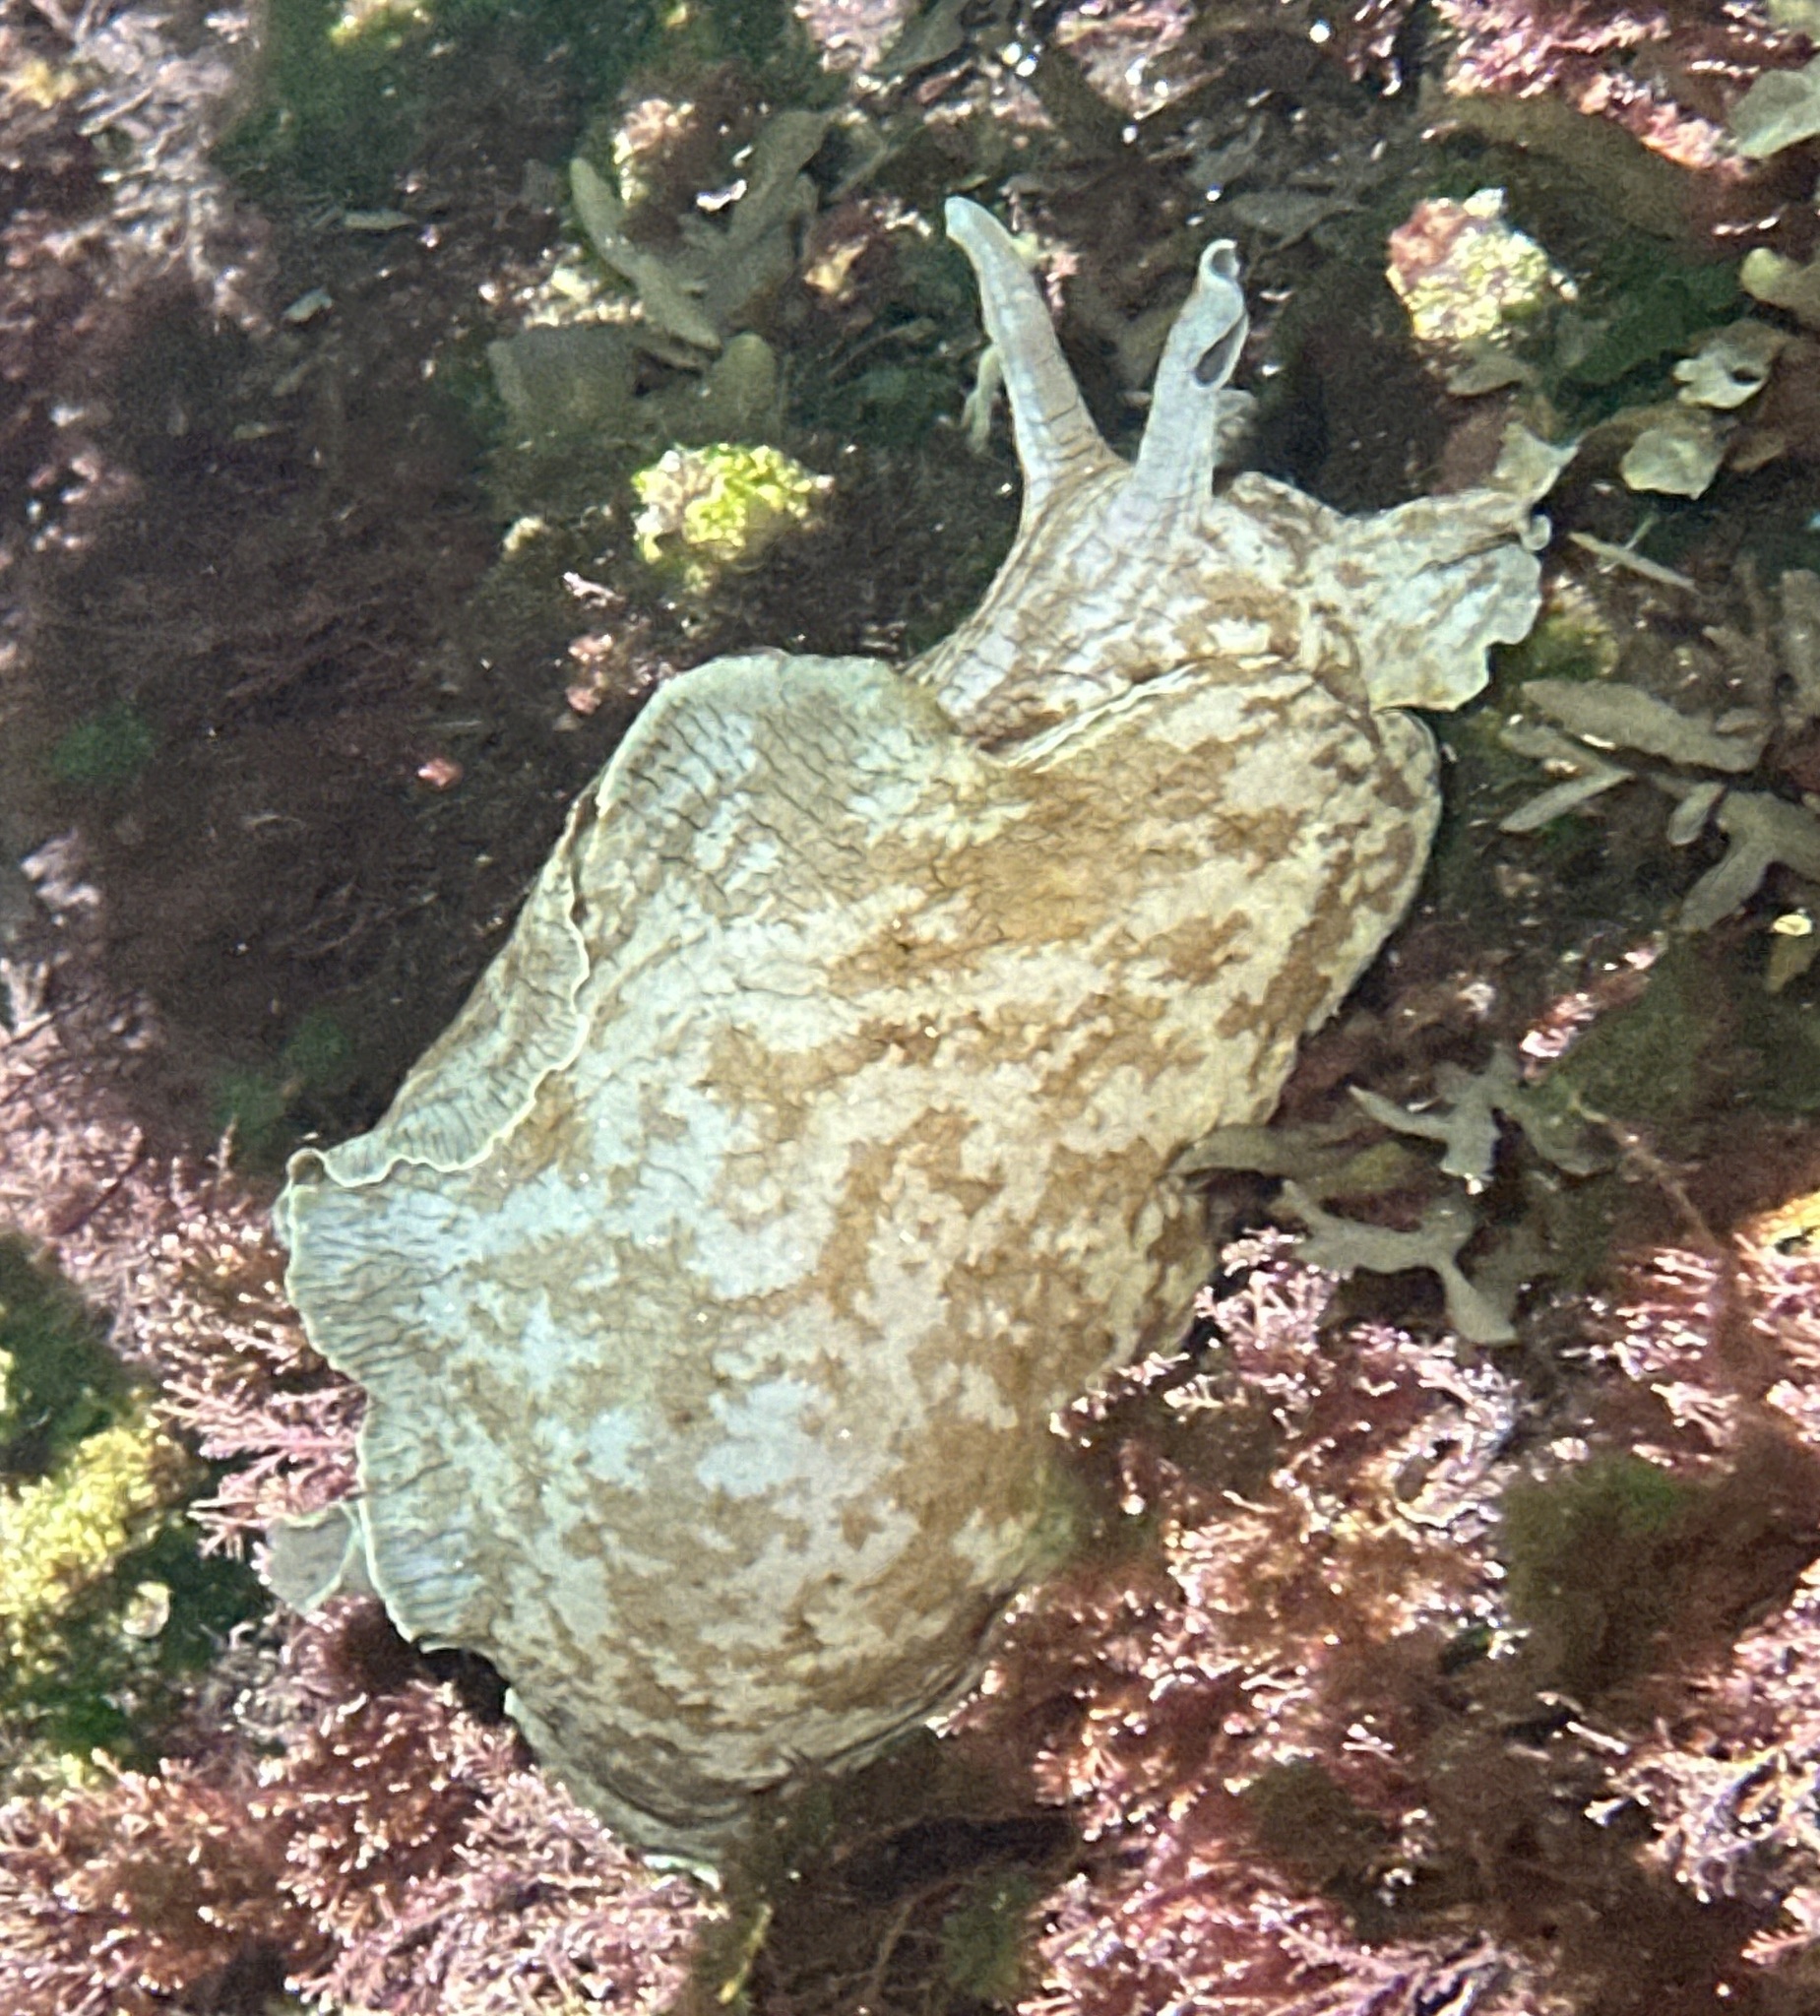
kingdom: Animalia
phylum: Mollusca
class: Gastropoda
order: Aplysiida
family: Aplysiidae
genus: Aplysia
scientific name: Aplysia sydneyensis
